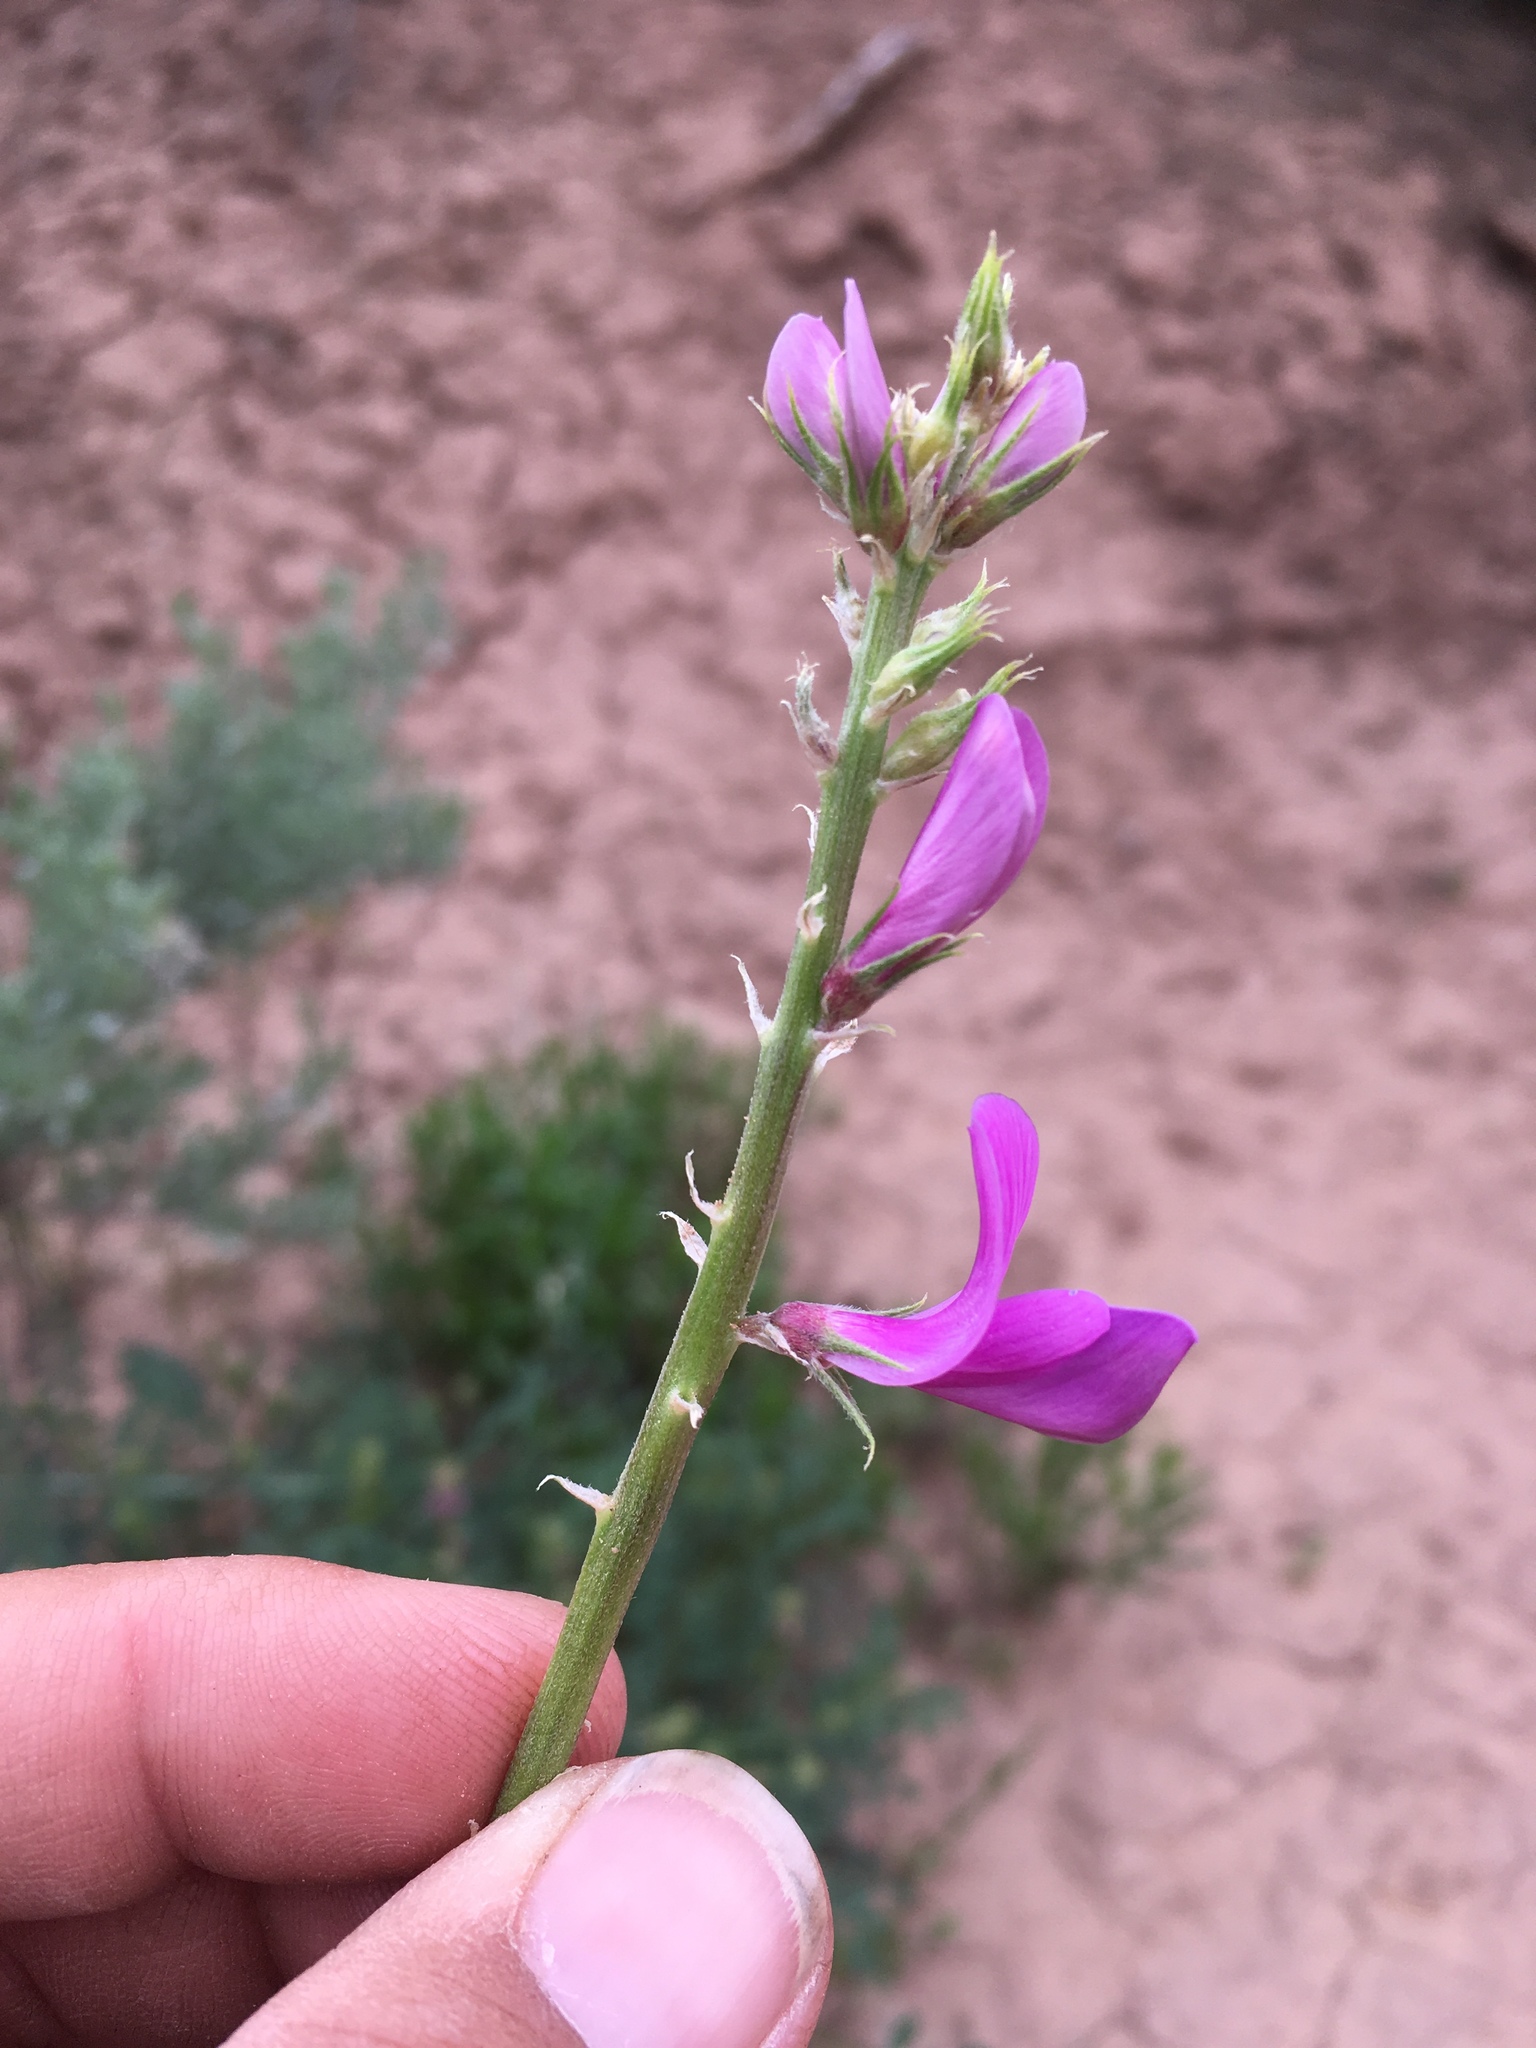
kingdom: Plantae
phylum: Tracheophyta
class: Magnoliopsida
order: Fabales
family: Fabaceae
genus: Hedysarum
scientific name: Hedysarum boreale
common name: Northern sweet-vetch
